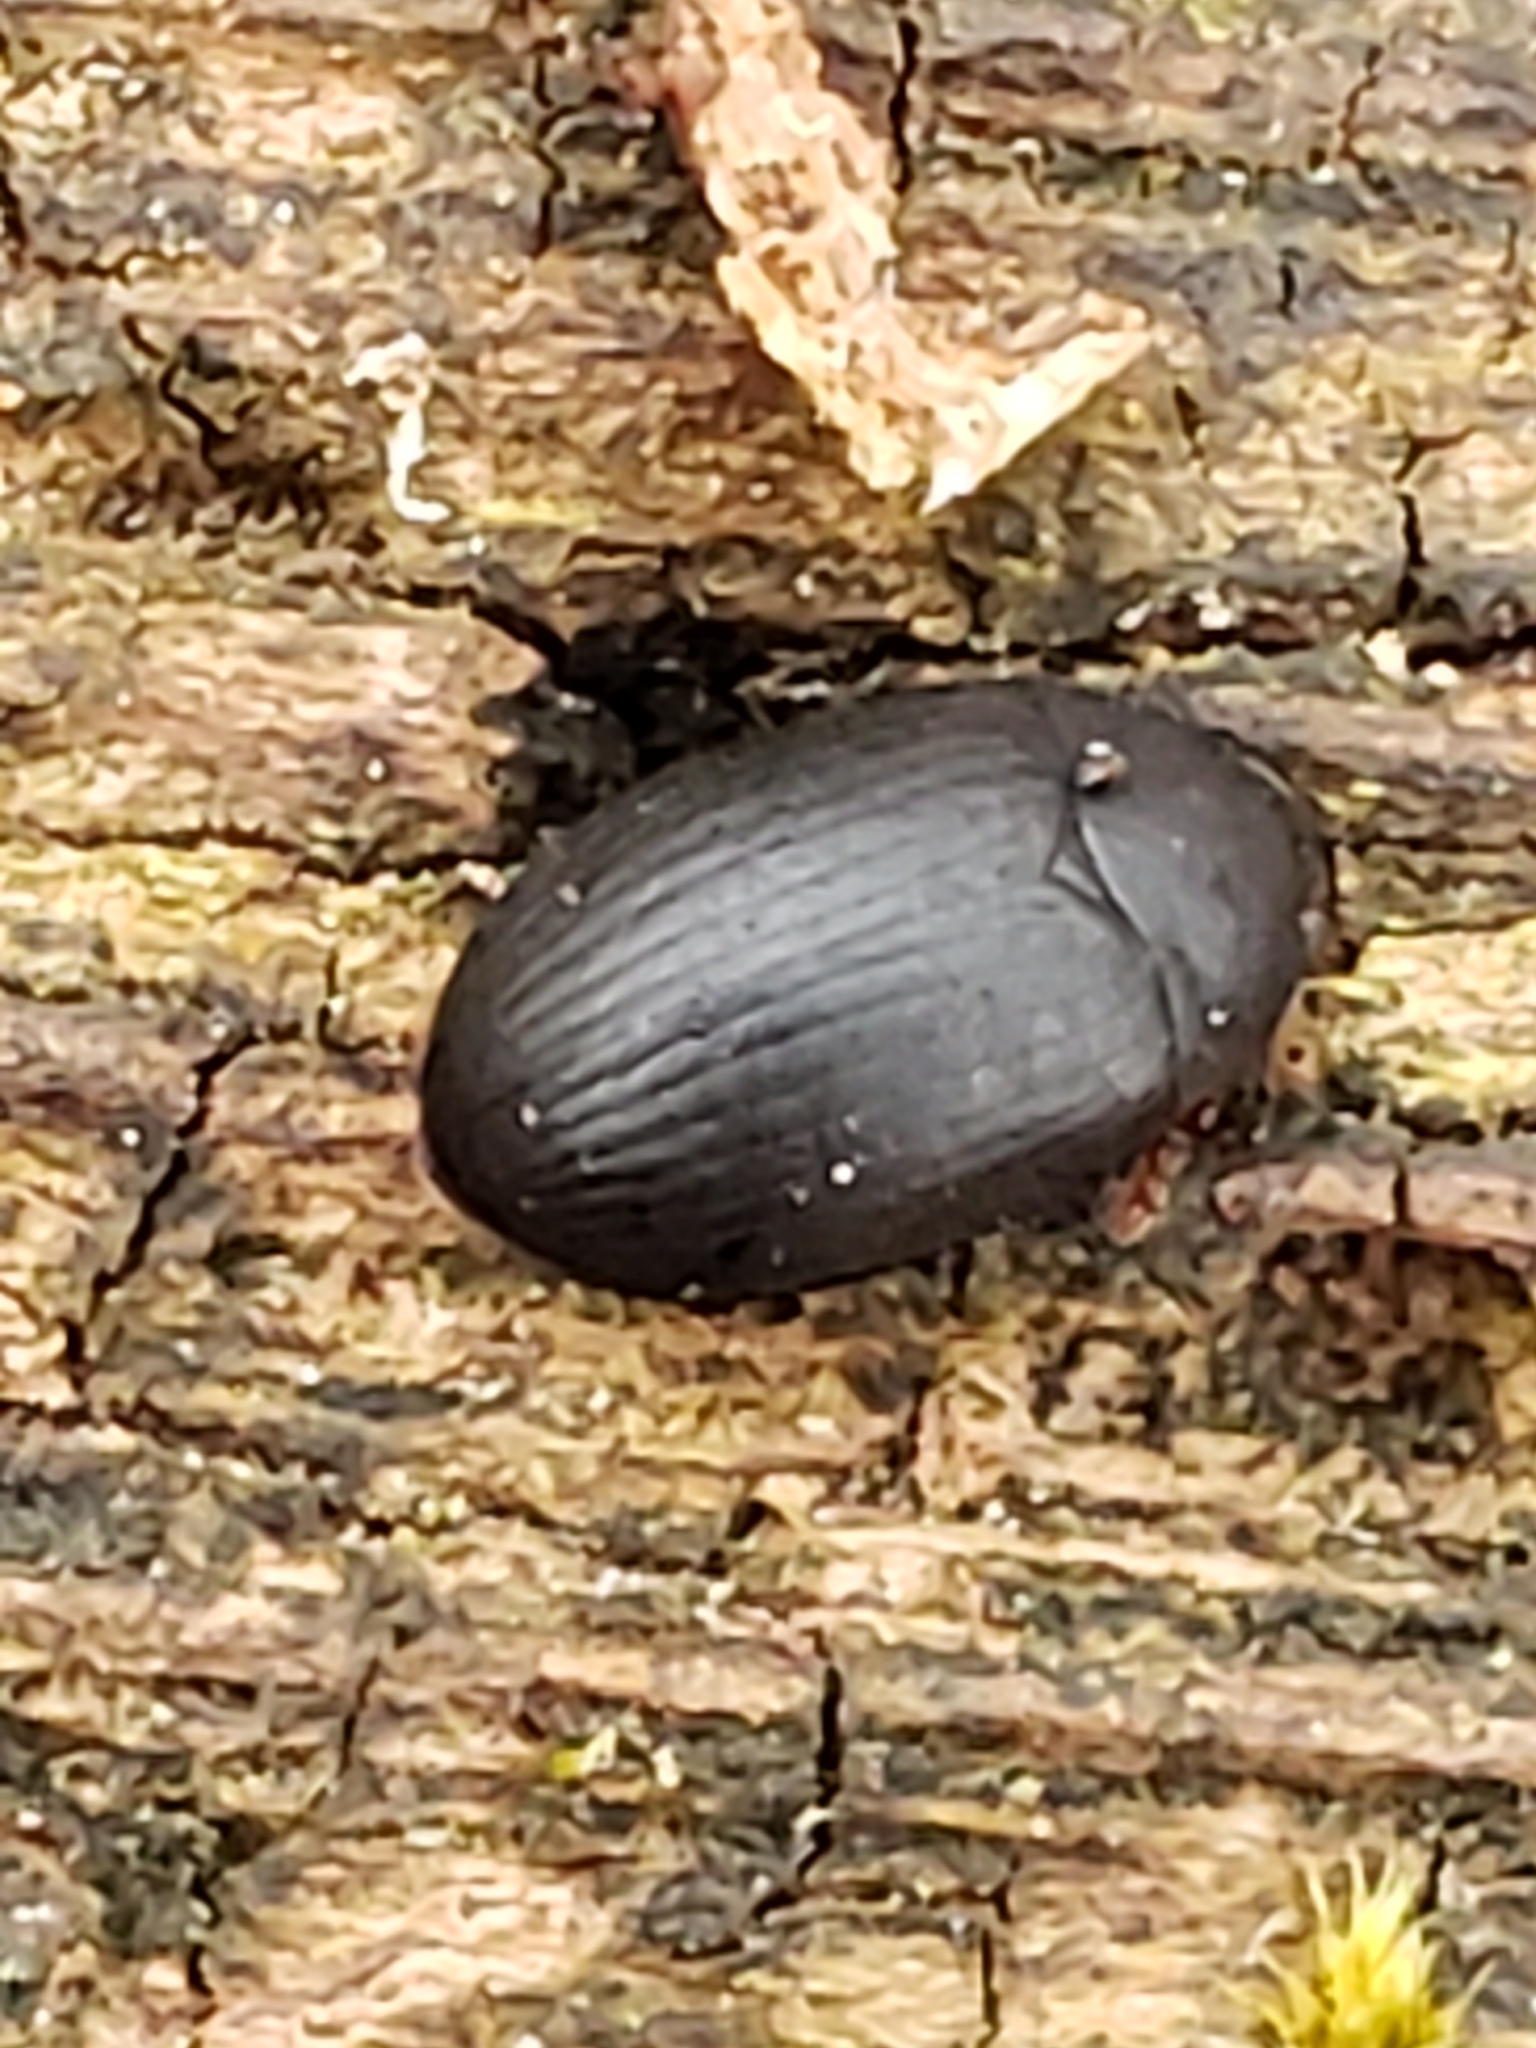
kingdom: Animalia
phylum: Arthropoda
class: Insecta
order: Coleoptera
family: Tenebrionidae
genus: Platydema
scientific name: Platydema ruficornis
